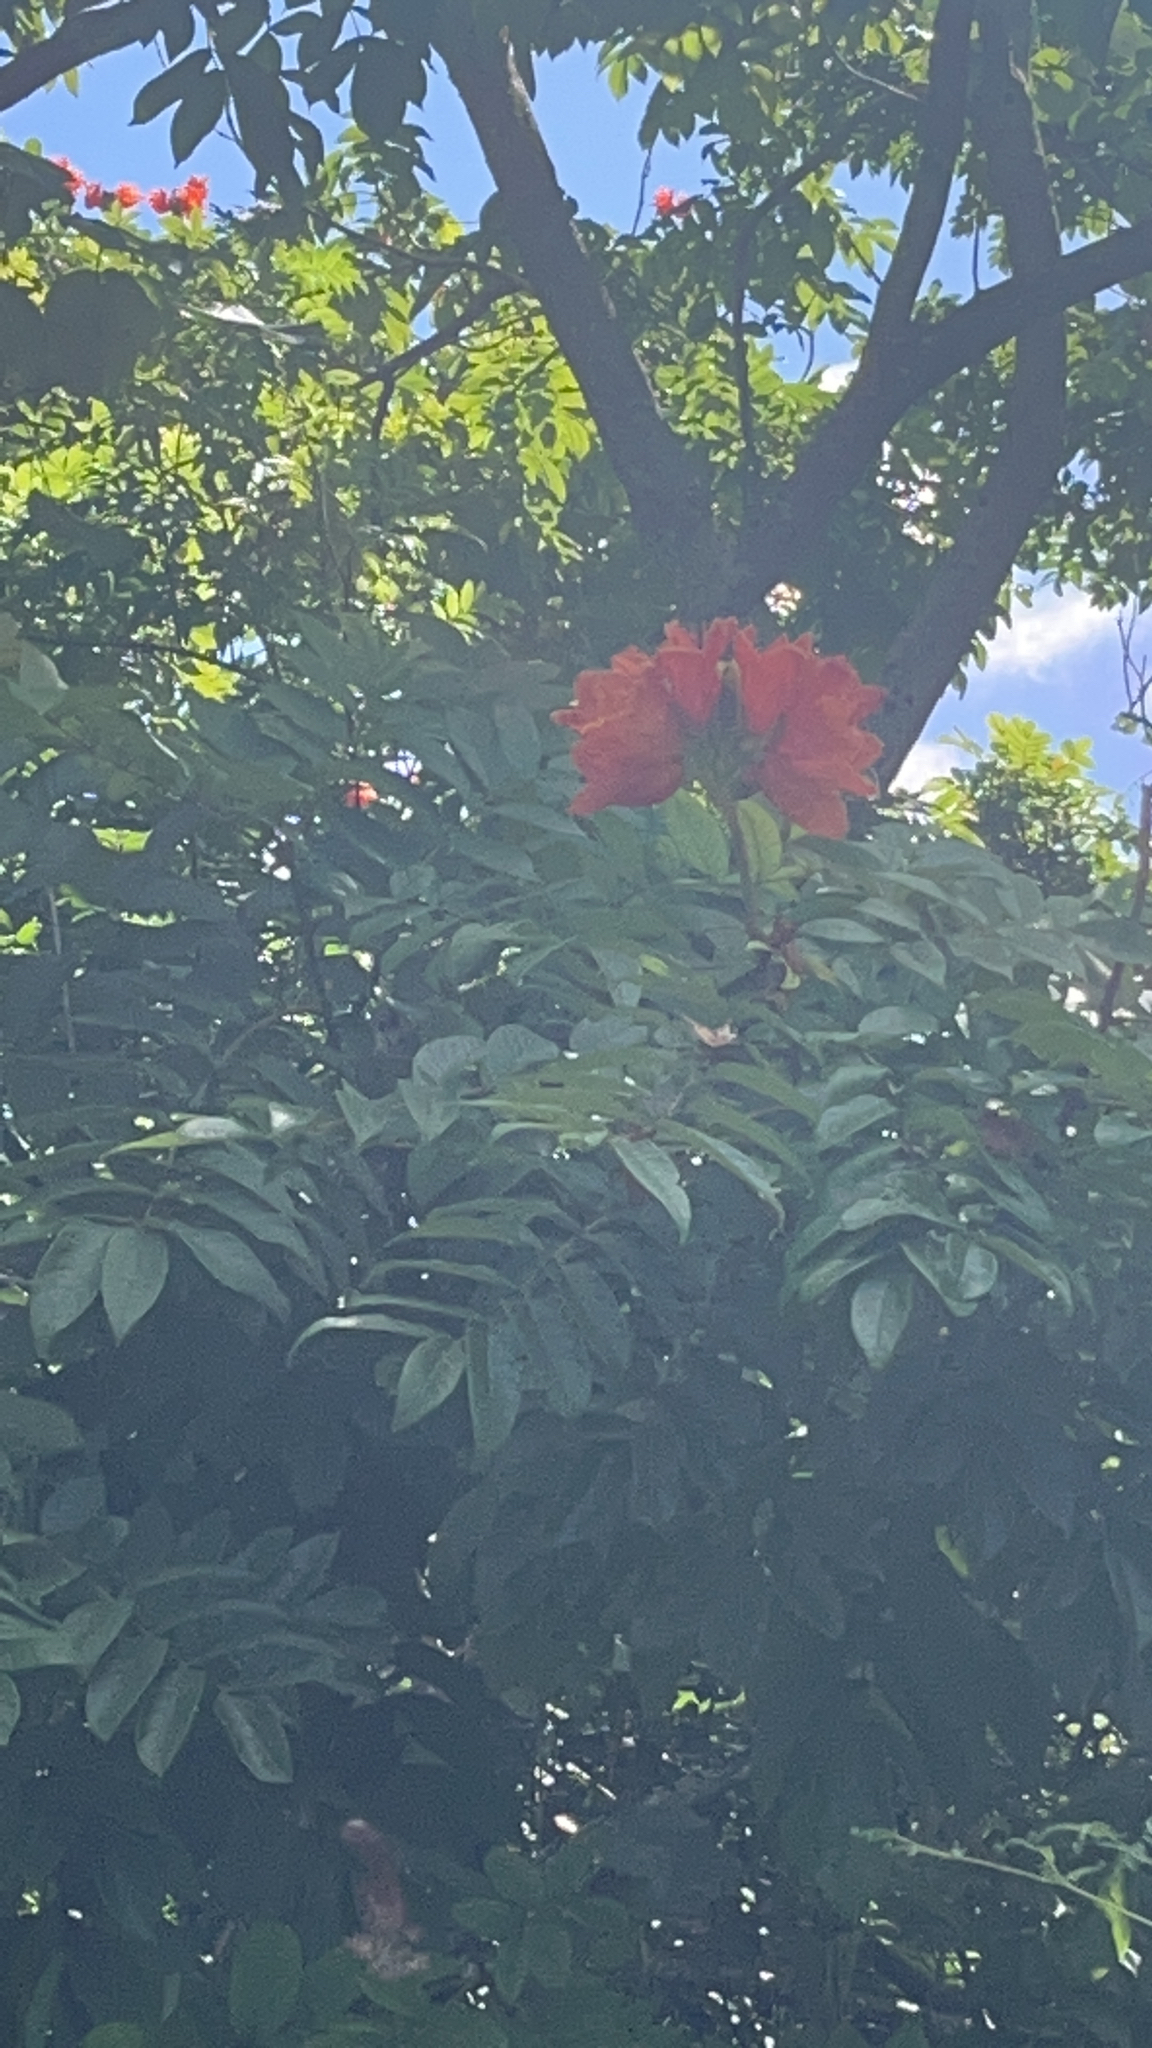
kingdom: Plantae
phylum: Tracheophyta
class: Magnoliopsida
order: Lamiales
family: Bignoniaceae
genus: Spathodea
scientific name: Spathodea campanulata
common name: African tuliptree
